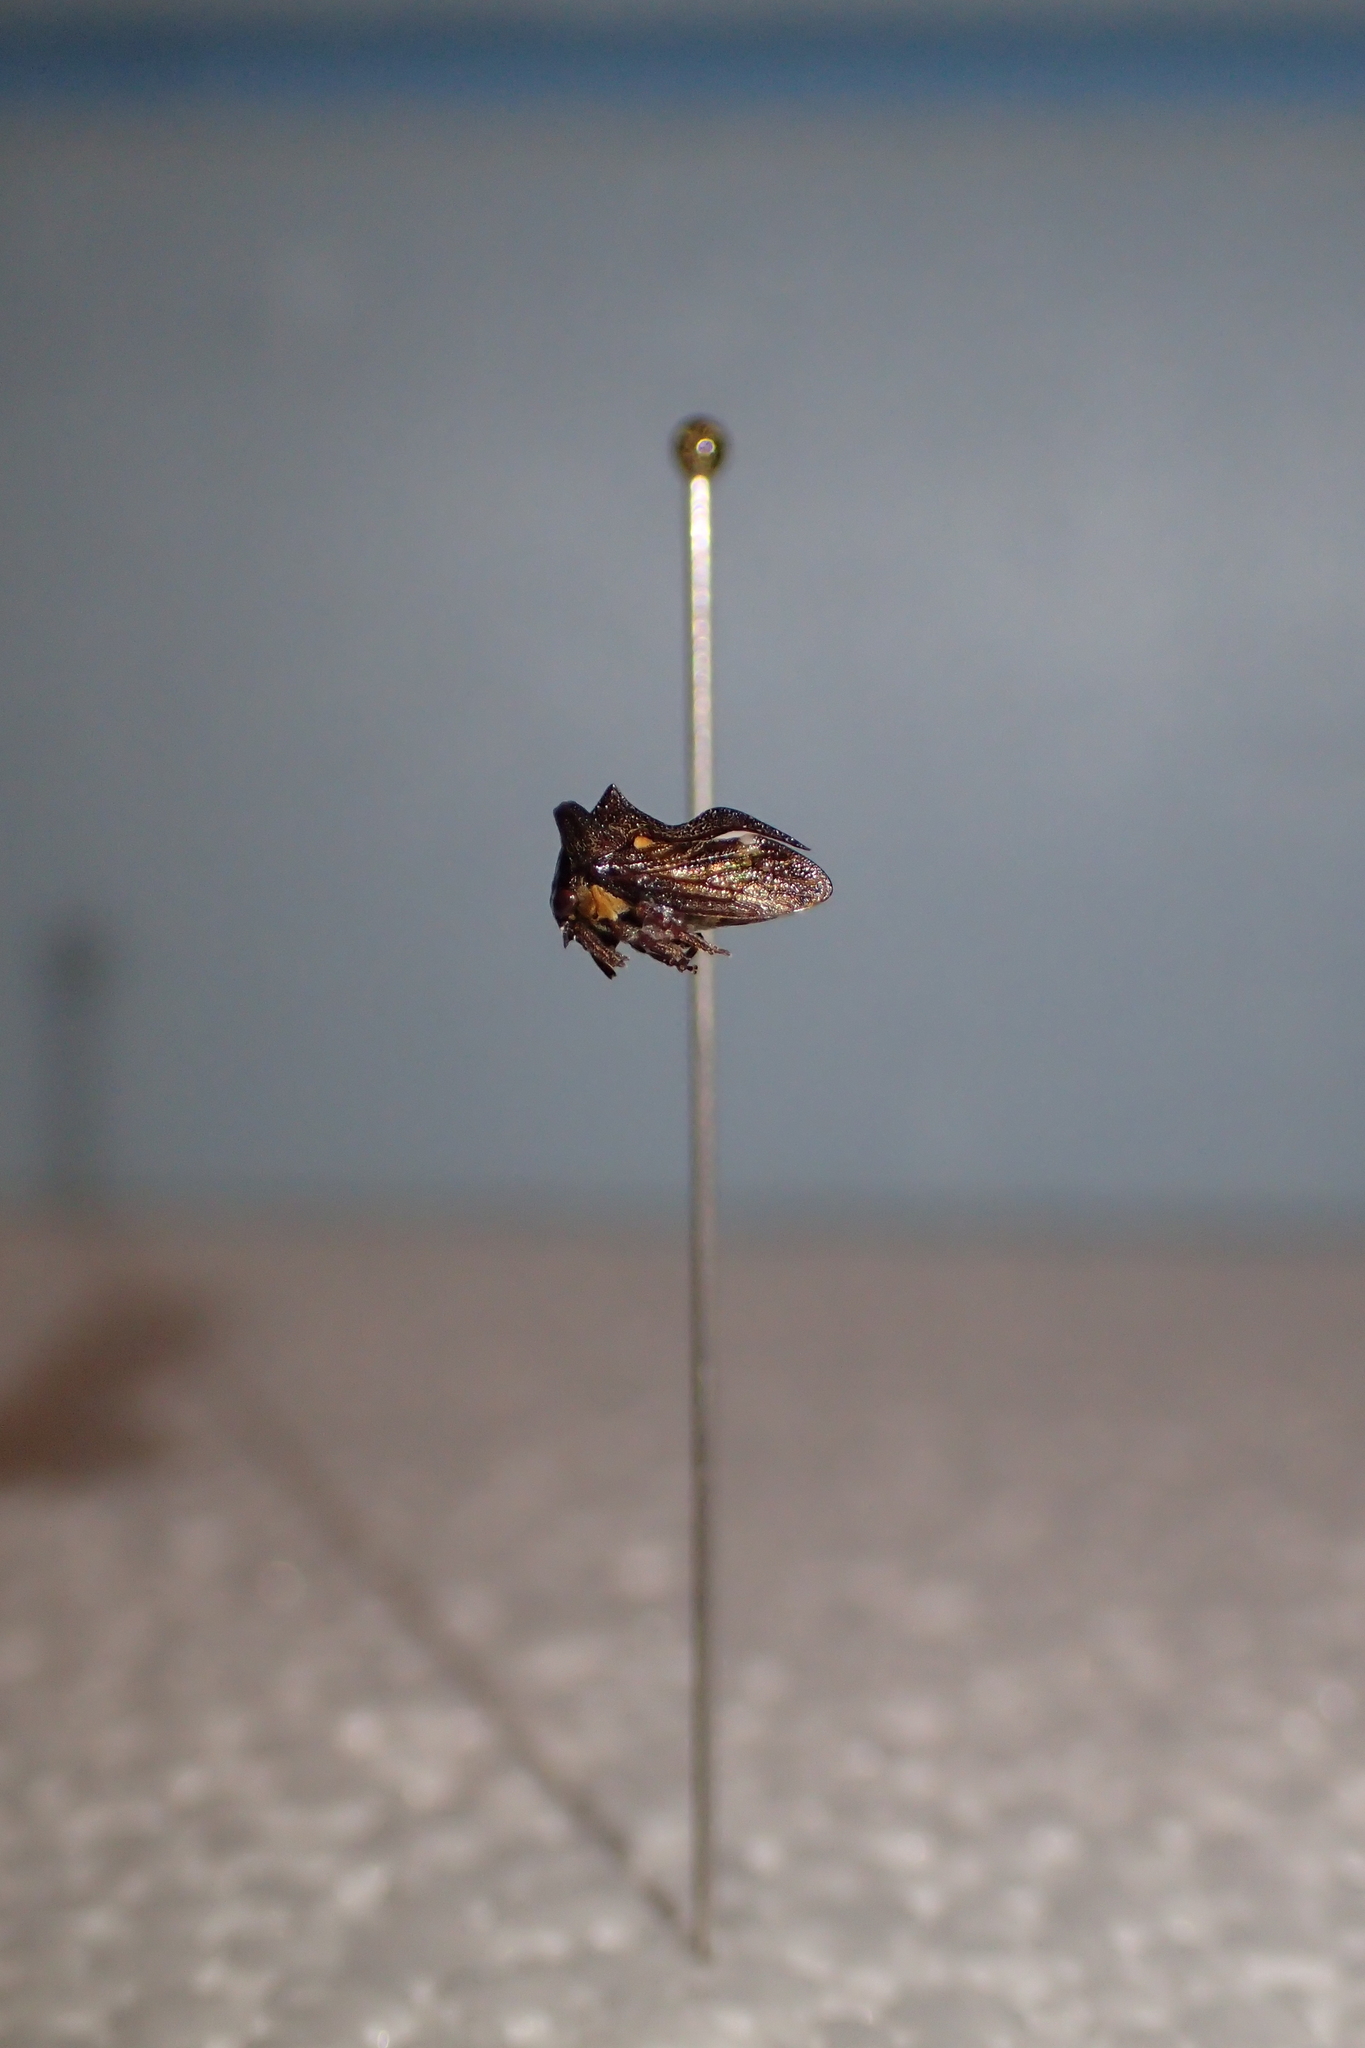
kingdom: Animalia
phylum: Arthropoda
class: Insecta
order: Hemiptera
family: Membracidae
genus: Acanthuchus
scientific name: Acanthuchus trispinifer
